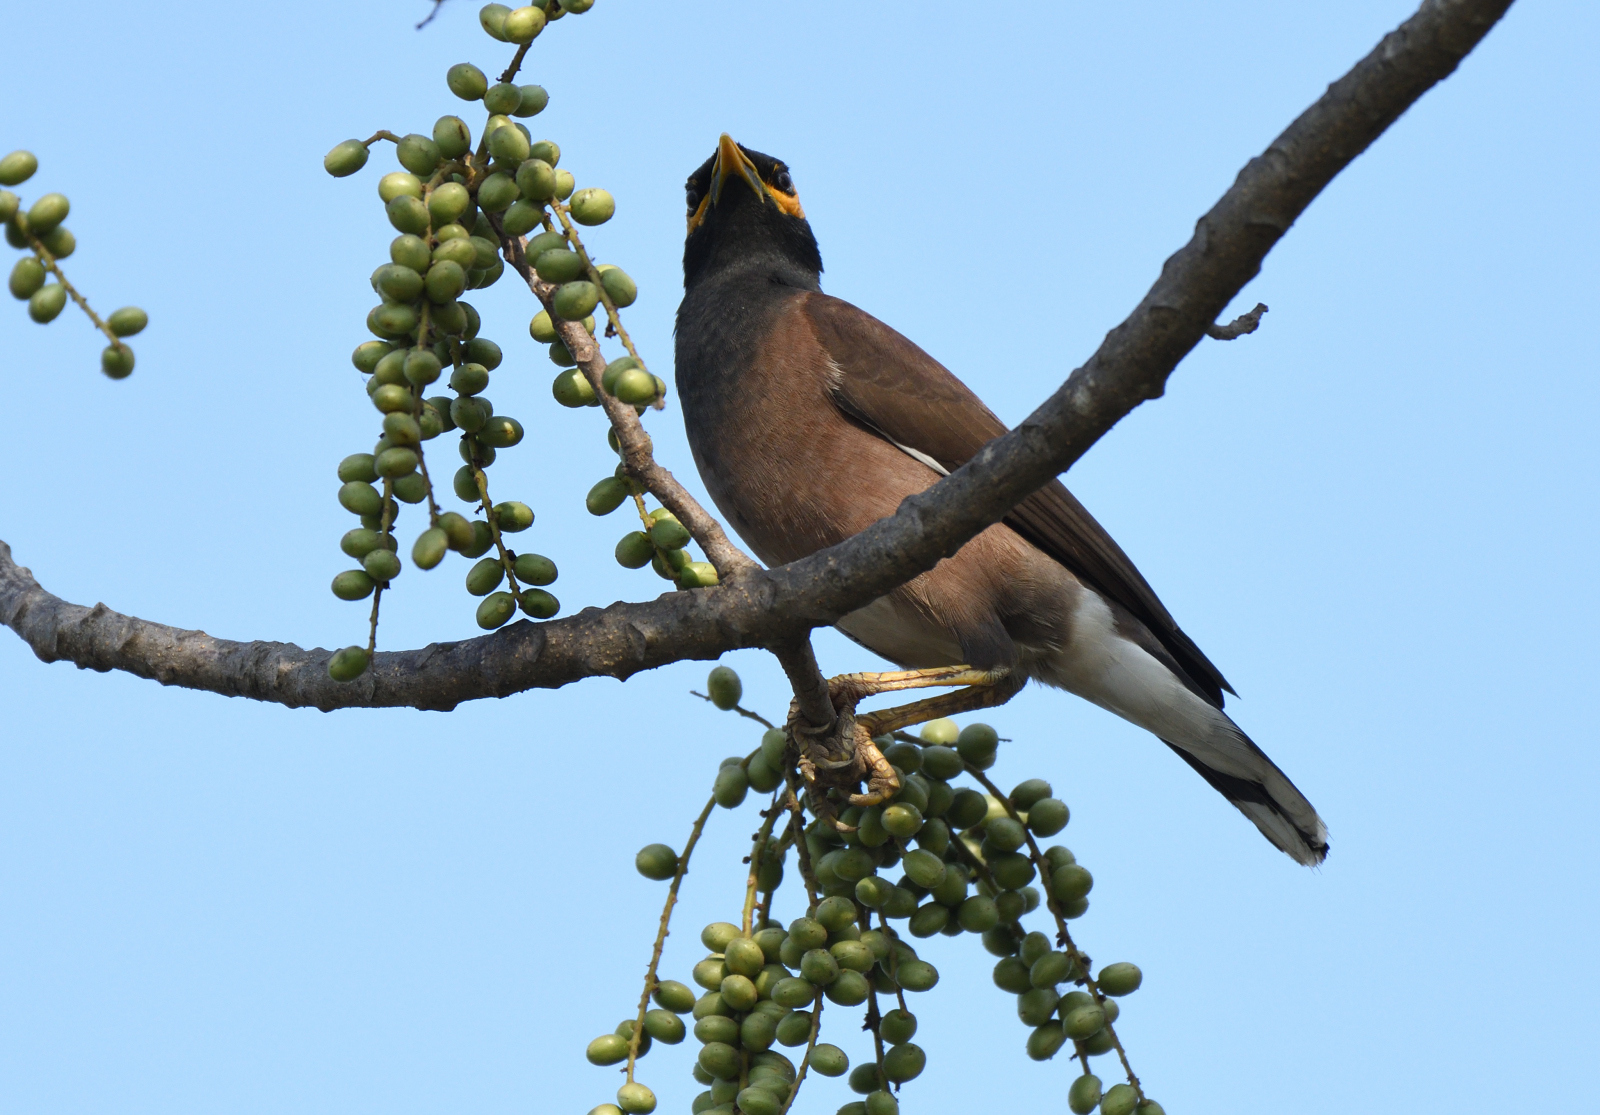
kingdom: Animalia
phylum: Chordata
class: Aves
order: Passeriformes
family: Sturnidae
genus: Acridotheres
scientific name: Acridotheres tristis
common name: Common myna
